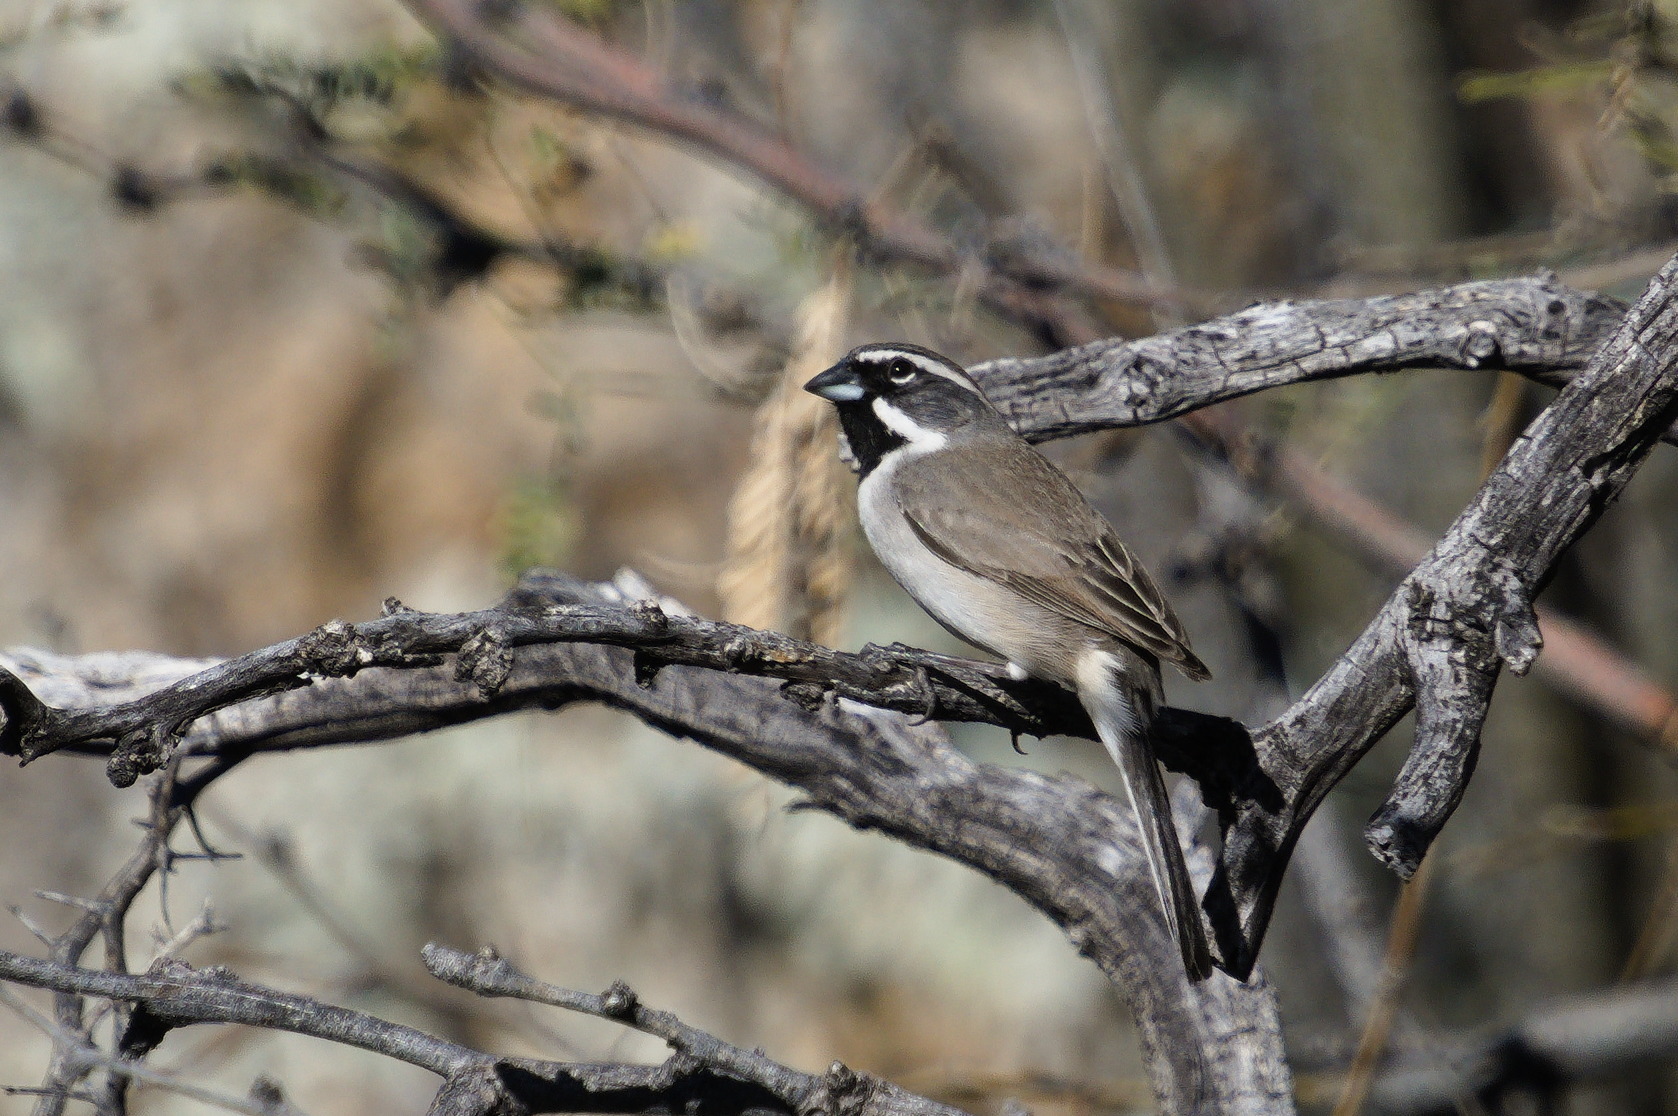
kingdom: Animalia
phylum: Chordata
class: Aves
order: Passeriformes
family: Passerellidae
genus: Amphispiza
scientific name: Amphispiza bilineata
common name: Black-throated sparrow
